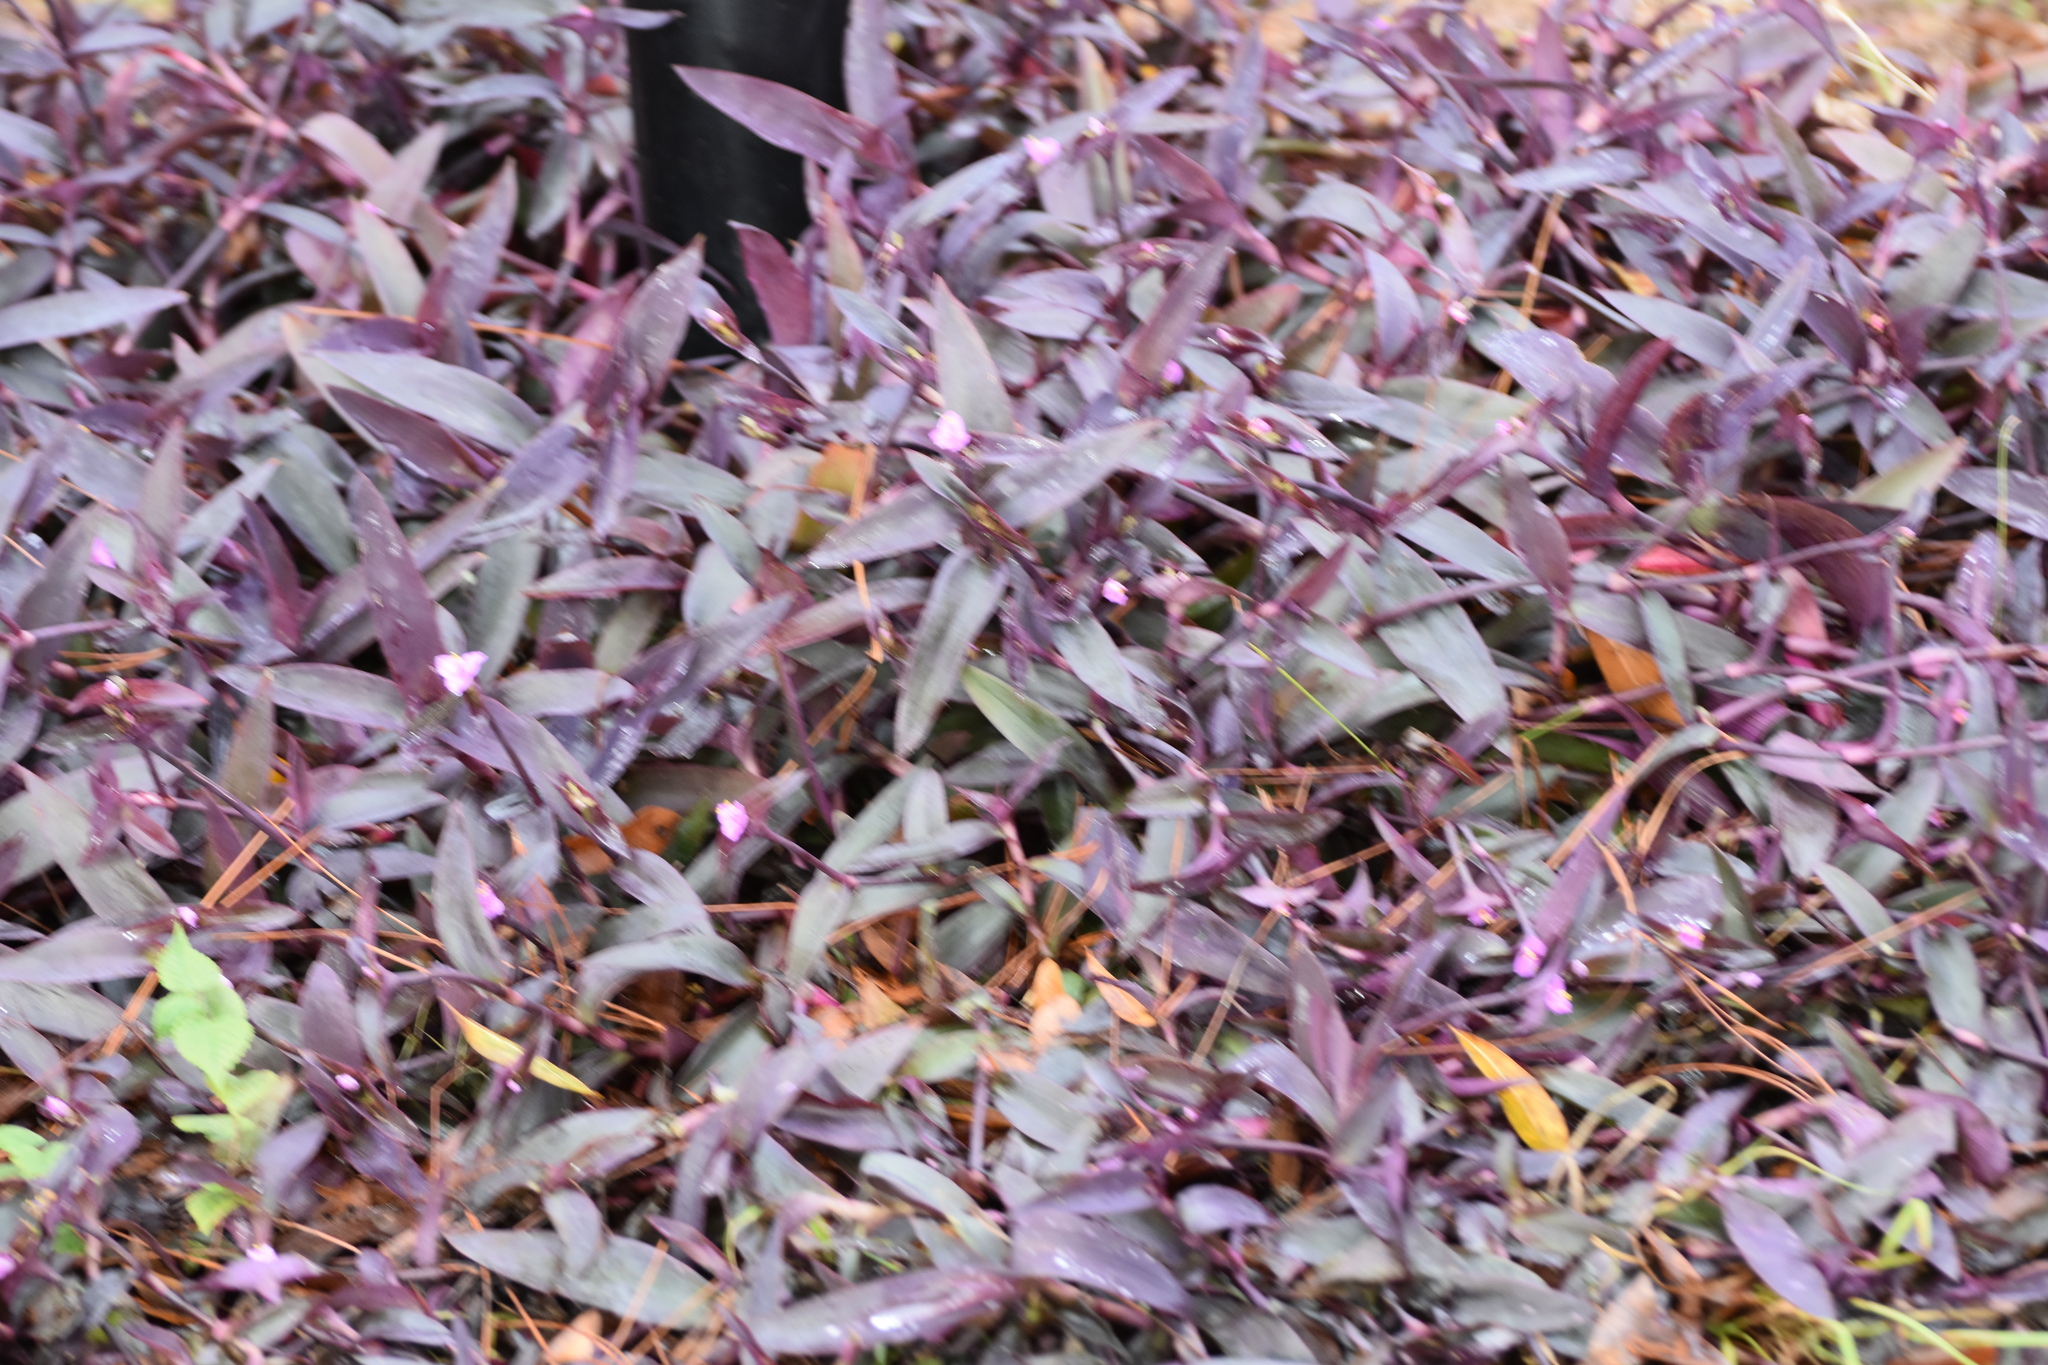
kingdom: Plantae
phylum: Tracheophyta
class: Liliopsida
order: Commelinales
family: Commelinaceae
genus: Tradescantia
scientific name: Tradescantia pallida
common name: Purpleheart
